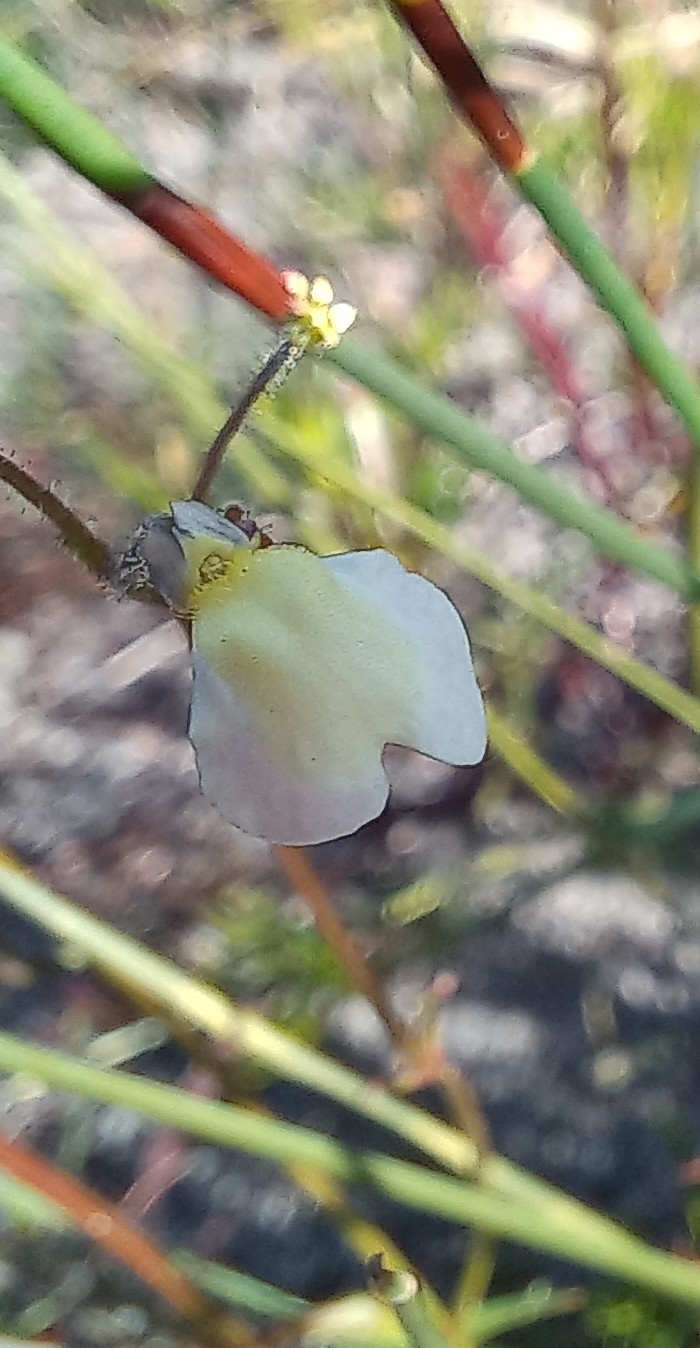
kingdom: Plantae
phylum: Tracheophyta
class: Magnoliopsida
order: Lamiales
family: Scrophulariaceae
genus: Nemesia
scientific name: Nemesia pinnata
